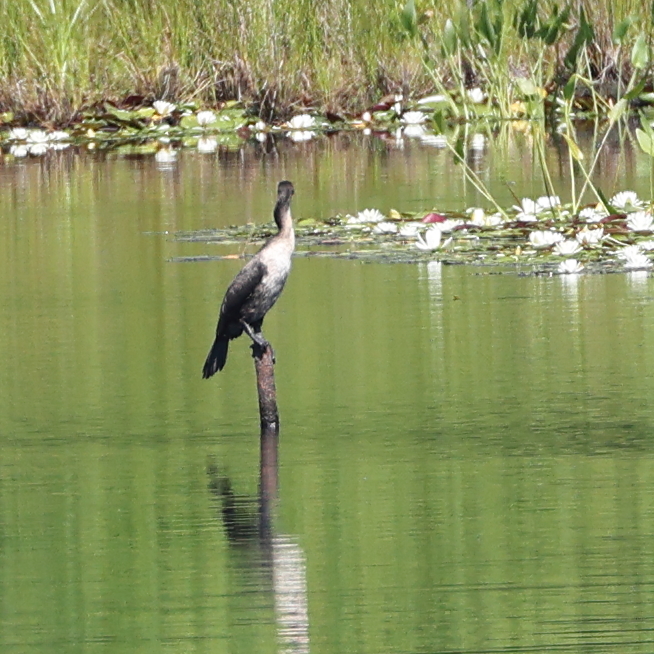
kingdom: Animalia
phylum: Chordata
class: Aves
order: Suliformes
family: Phalacrocoracidae
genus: Phalacrocorax
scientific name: Phalacrocorax auritus
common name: Double-crested cormorant
